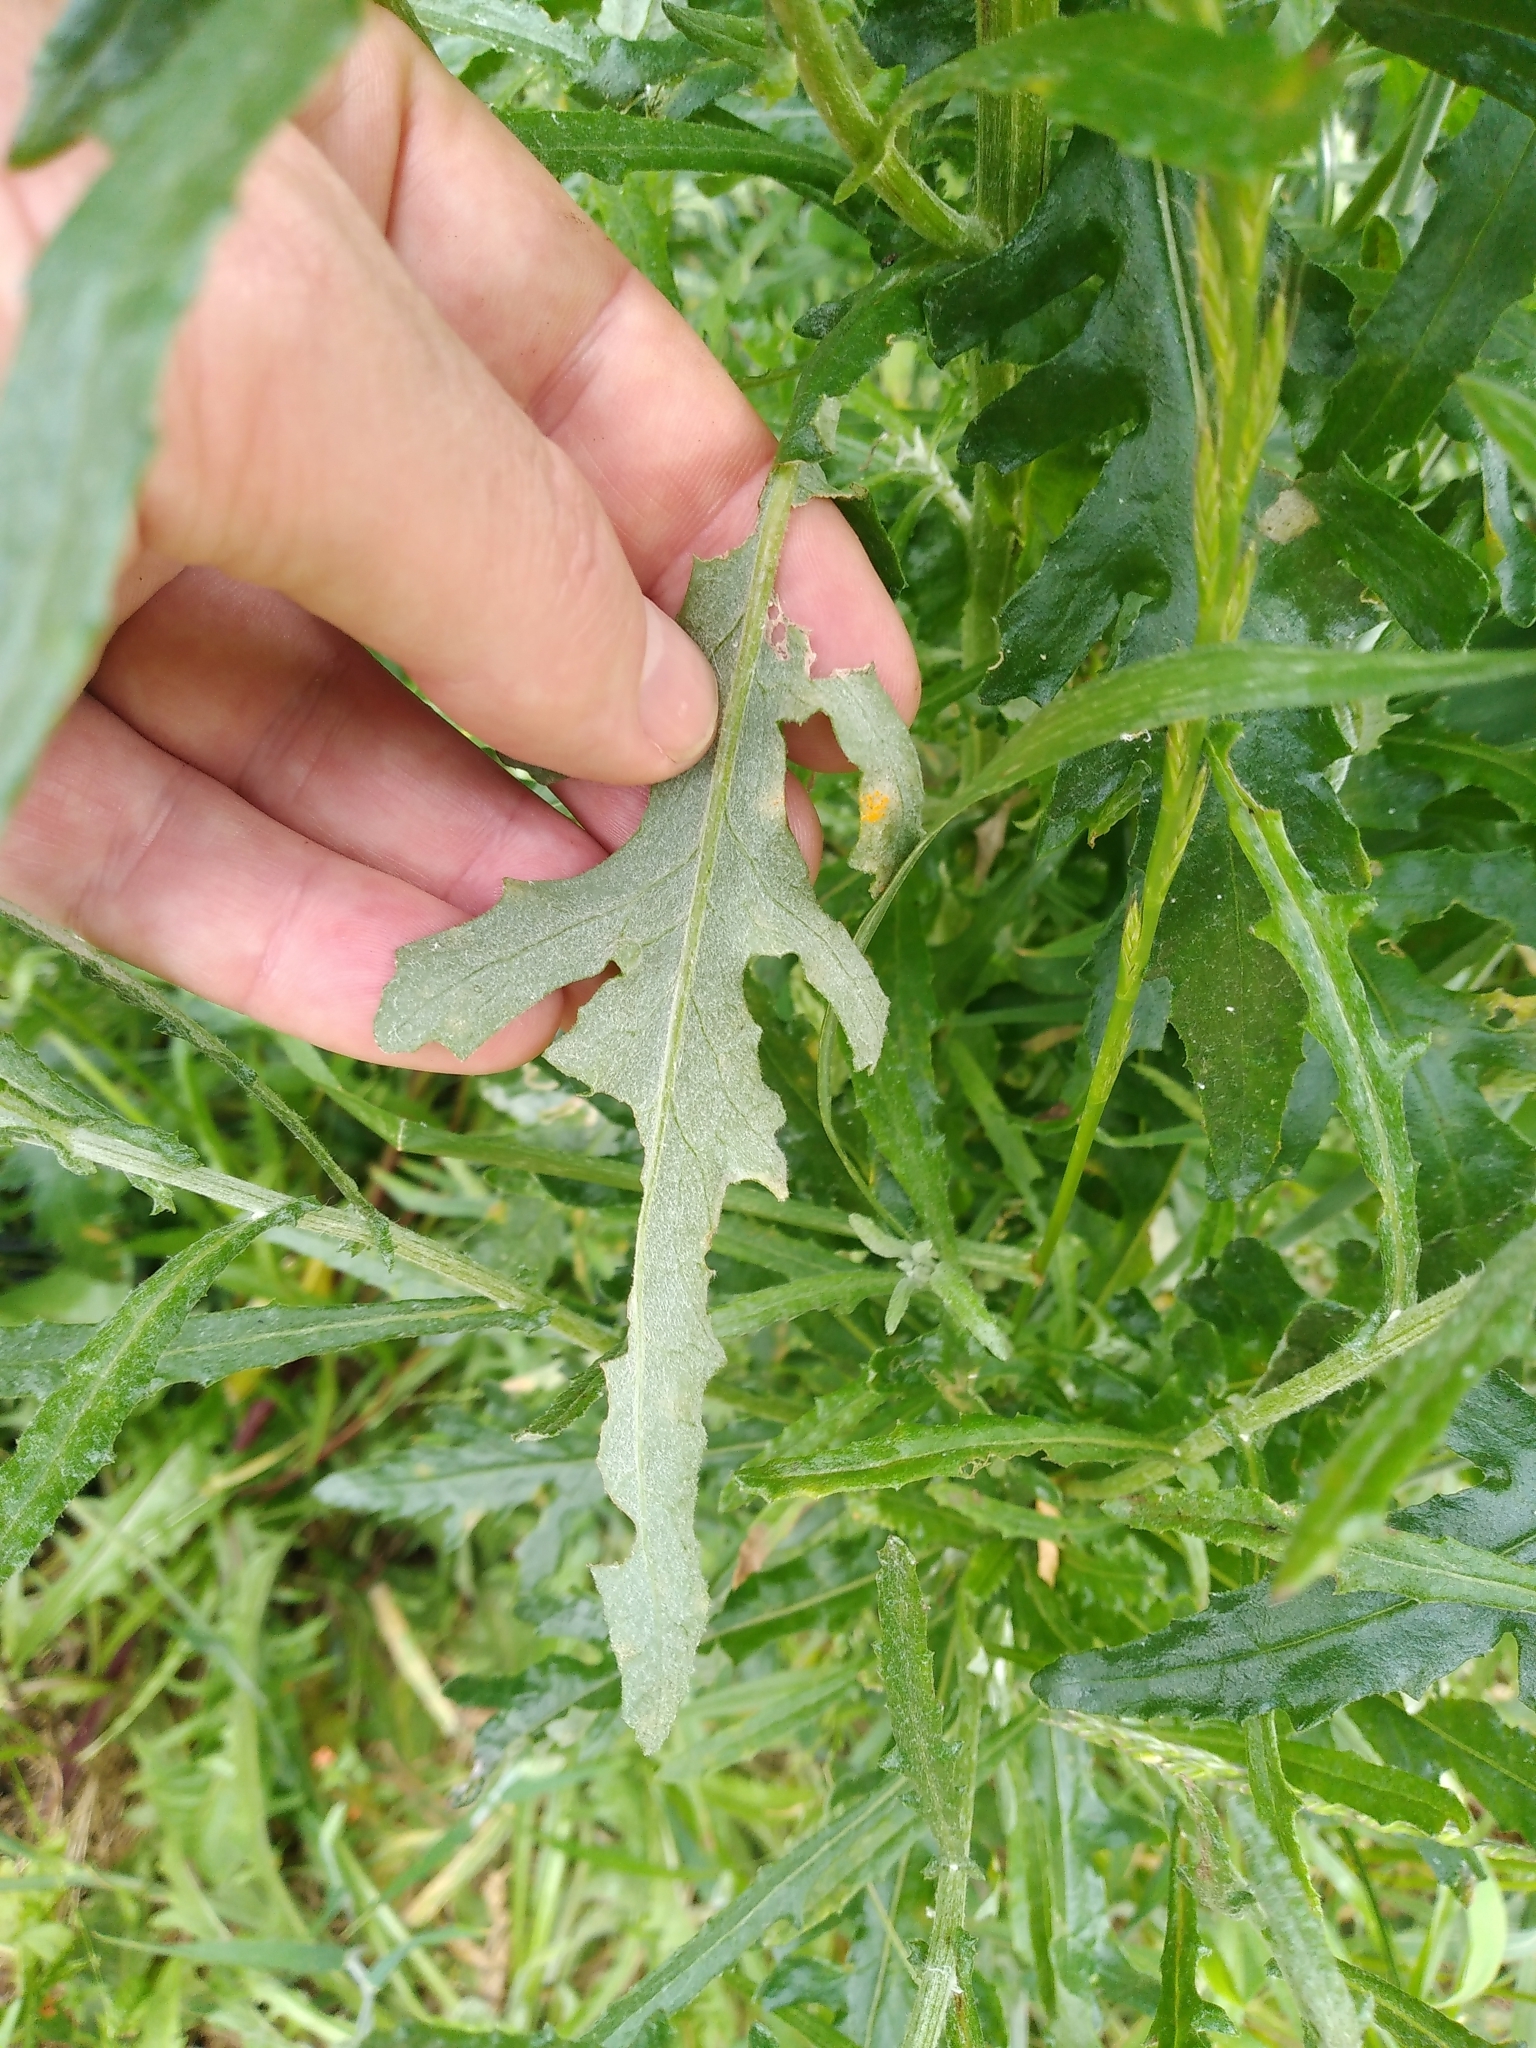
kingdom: Plantae
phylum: Tracheophyta
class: Magnoliopsida
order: Asterales
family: Asteraceae
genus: Senecio
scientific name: Senecio glomeratus
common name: Cutleaf burnweed
